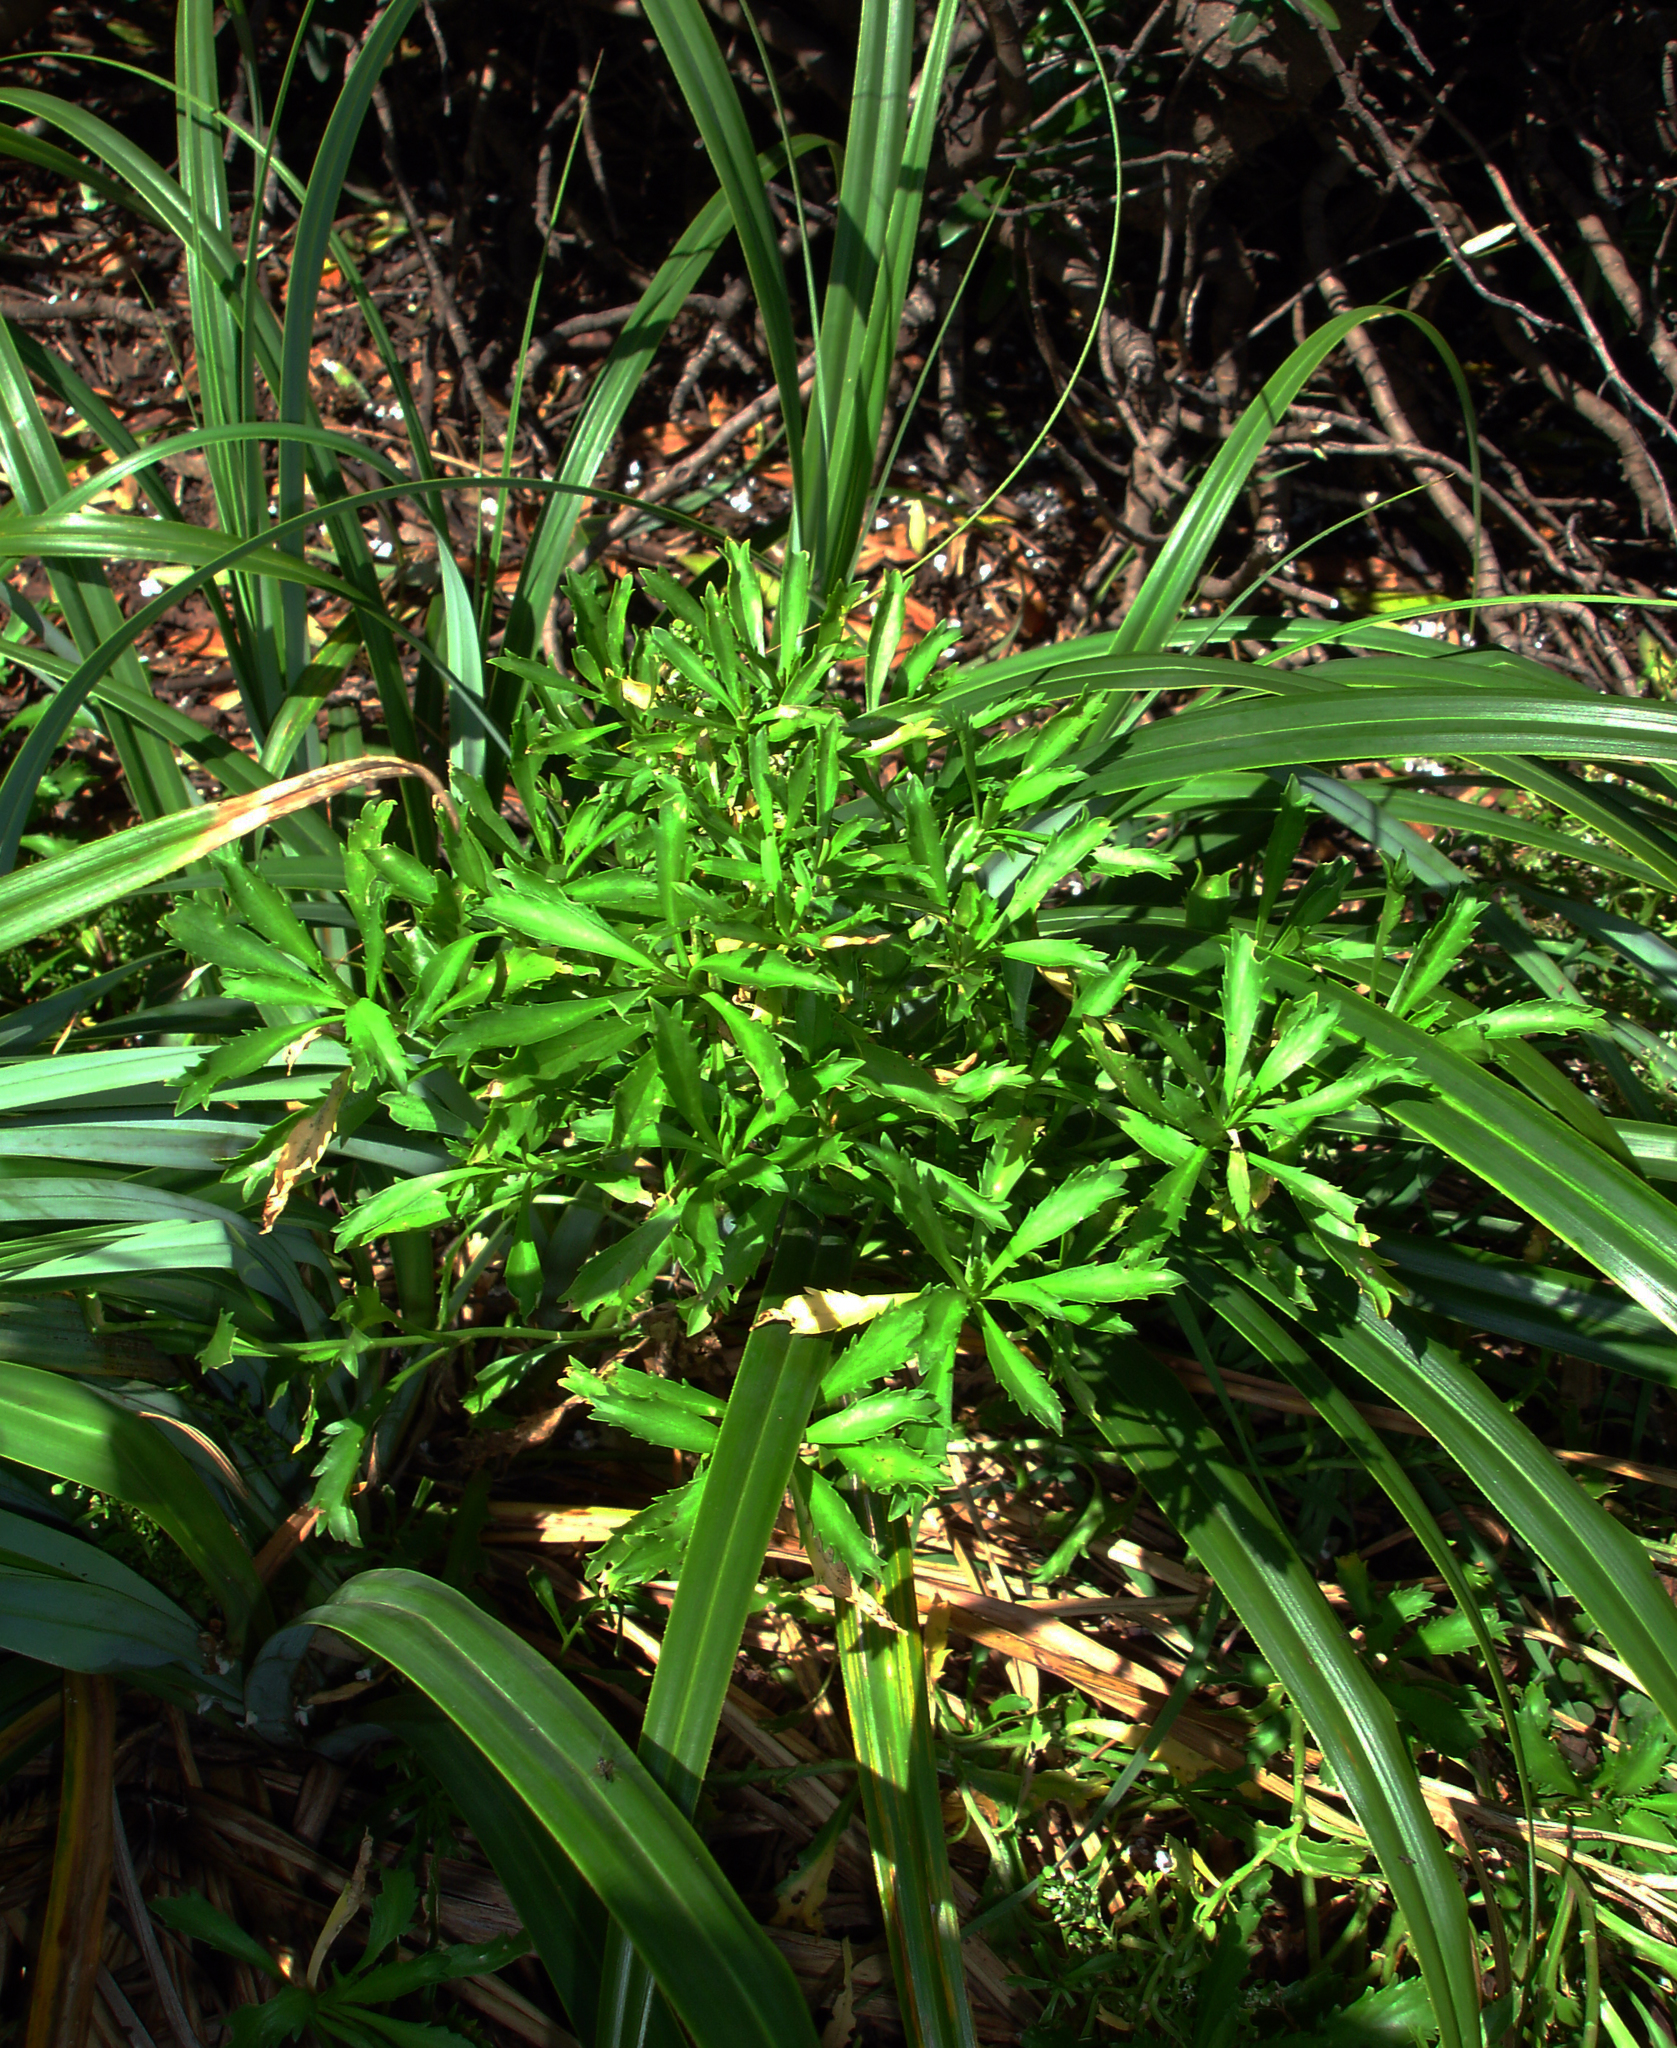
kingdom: Plantae
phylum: Tracheophyta
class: Magnoliopsida
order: Brassicales
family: Brassicaceae
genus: Lepidium
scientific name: Lepidium panniforme
